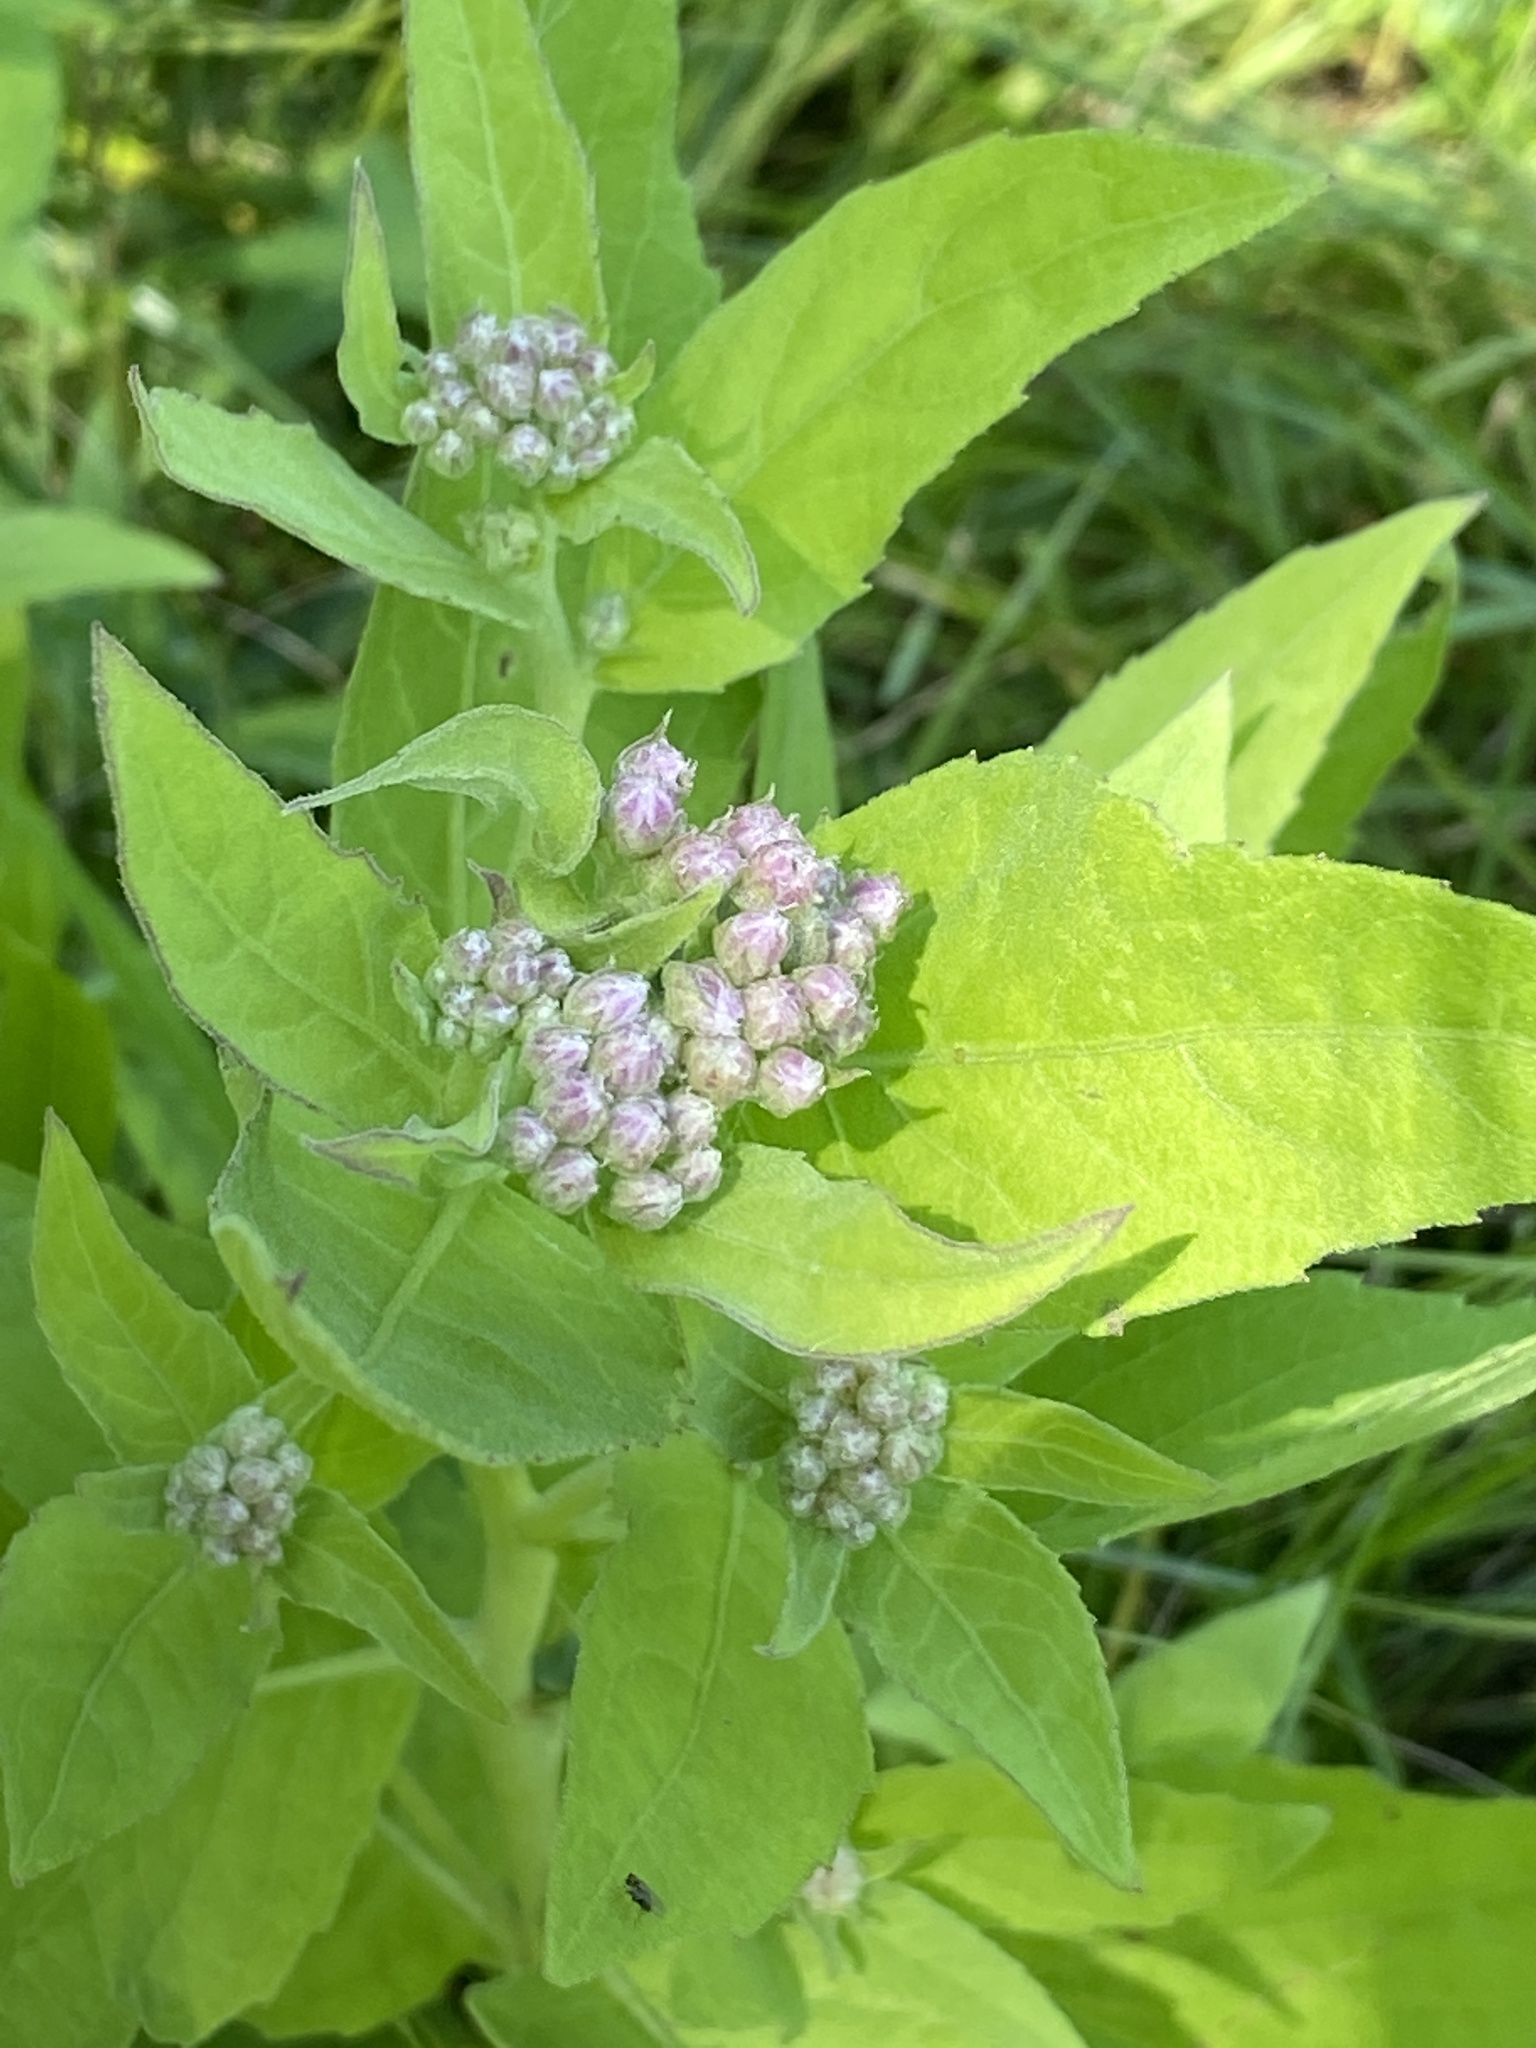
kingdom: Plantae
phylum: Tracheophyta
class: Magnoliopsida
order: Asterales
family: Asteraceae
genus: Pluchea
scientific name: Pluchea odorata
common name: Saltmarsh fleabane
